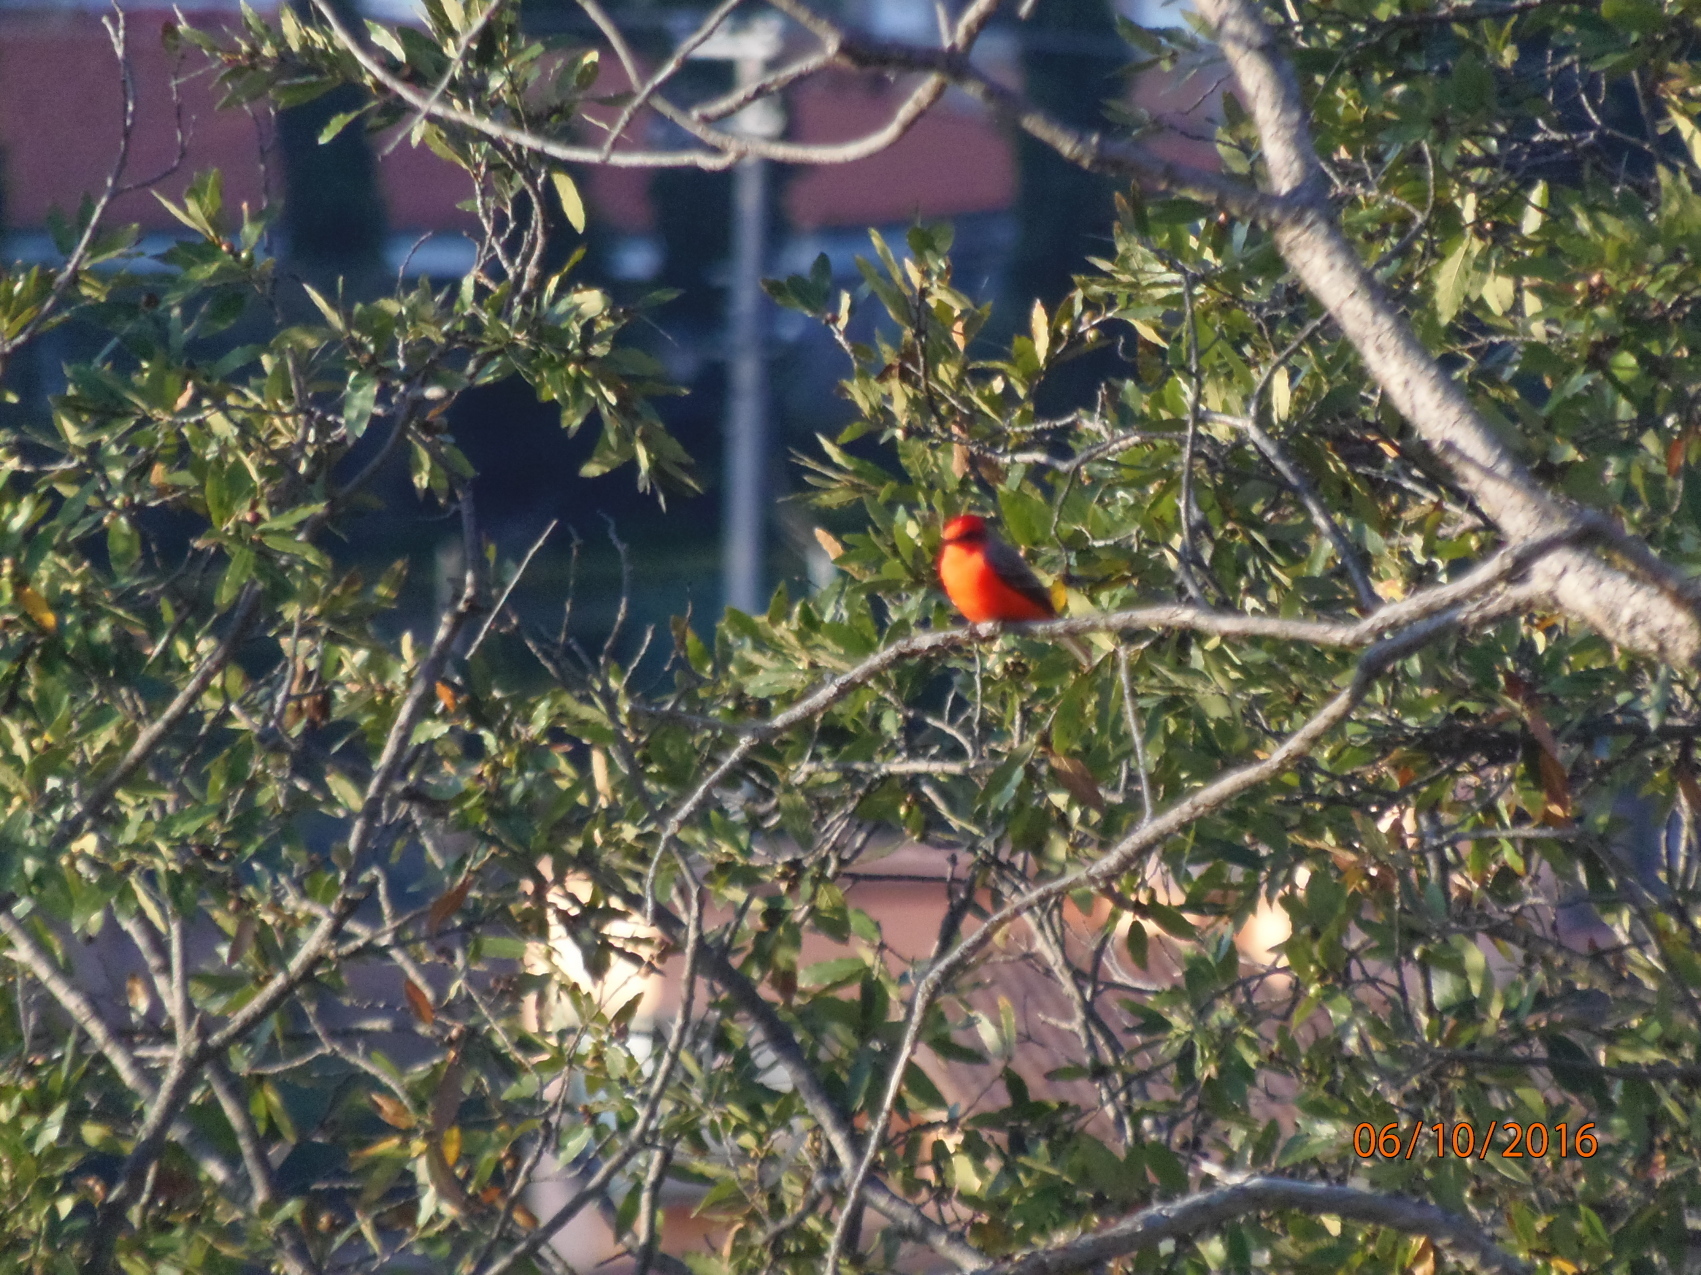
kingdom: Animalia
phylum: Chordata
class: Aves
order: Passeriformes
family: Tyrannidae
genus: Pyrocephalus
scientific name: Pyrocephalus rubinus
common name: Vermilion flycatcher
